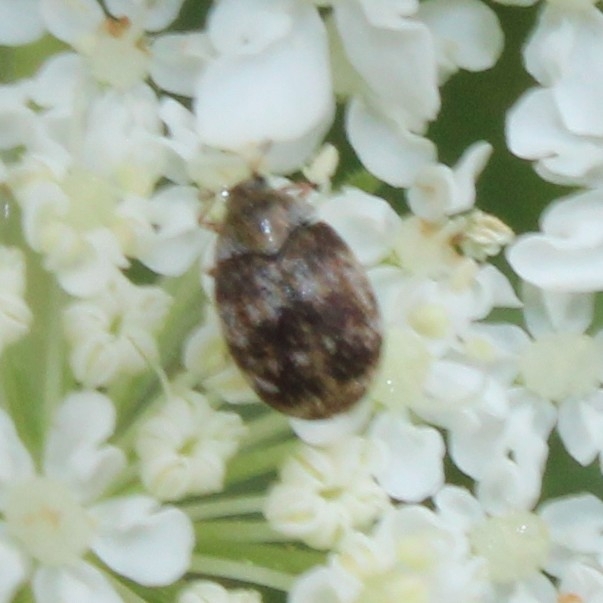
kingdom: Animalia
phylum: Arthropoda
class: Insecta
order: Coleoptera
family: Dermestidae
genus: Anthrenus
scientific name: Anthrenus fuscus
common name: Mill carpet beetle
